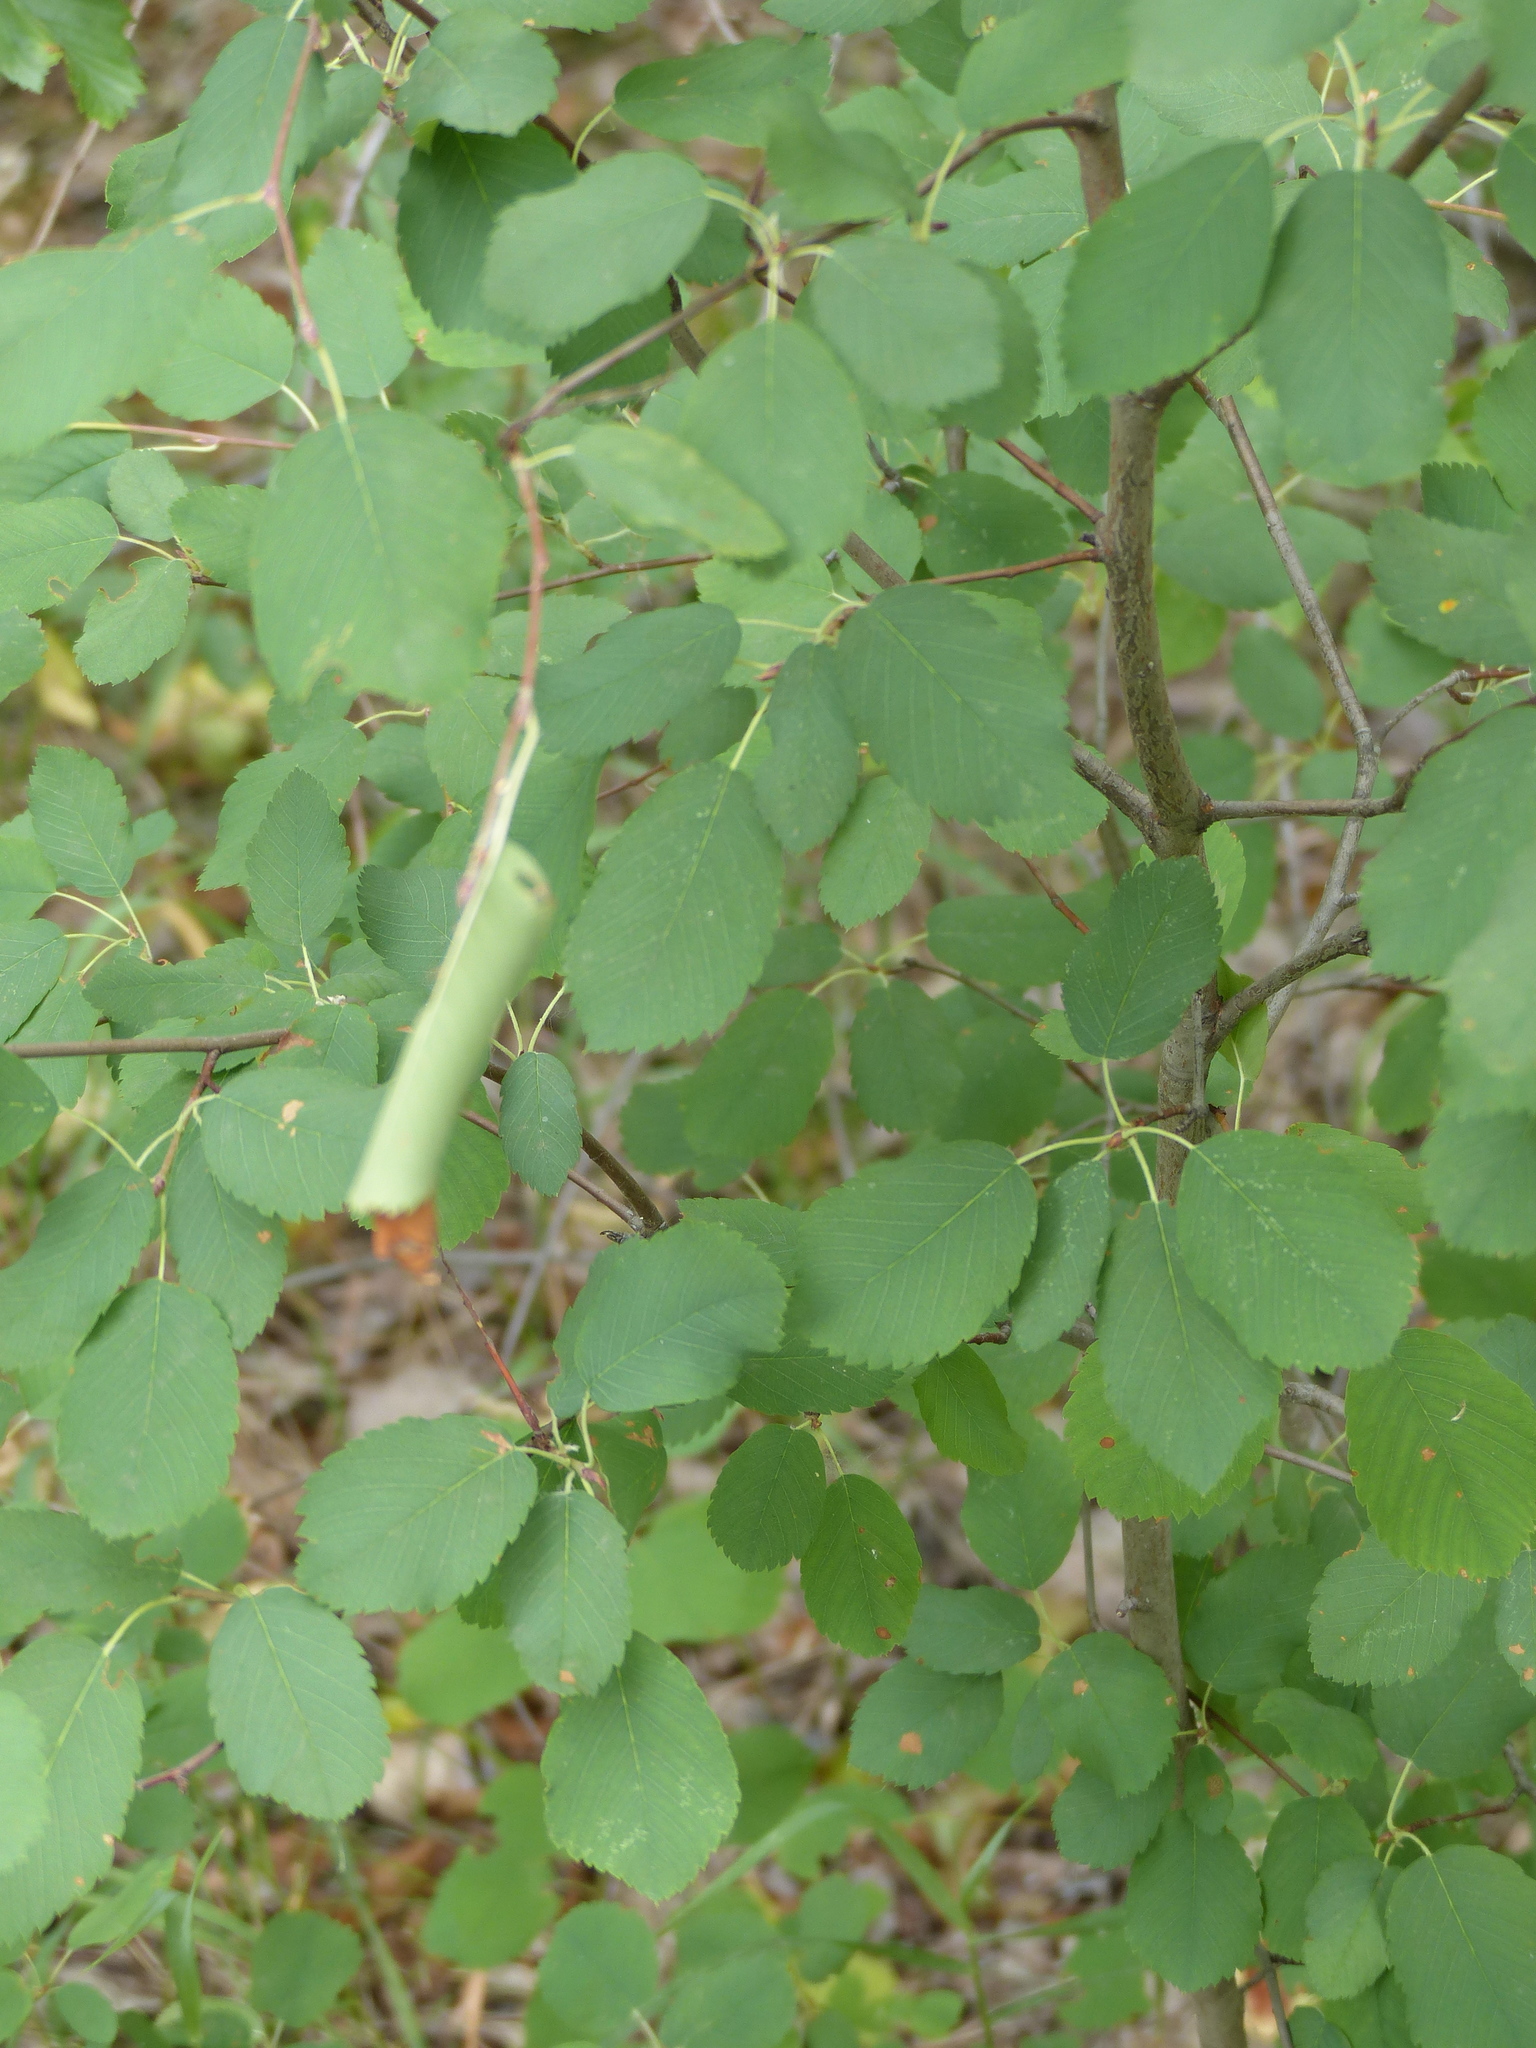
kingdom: Plantae
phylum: Tracheophyta
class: Magnoliopsida
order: Rosales
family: Rosaceae
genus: Amelanchier
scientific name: Amelanchier alnifolia
